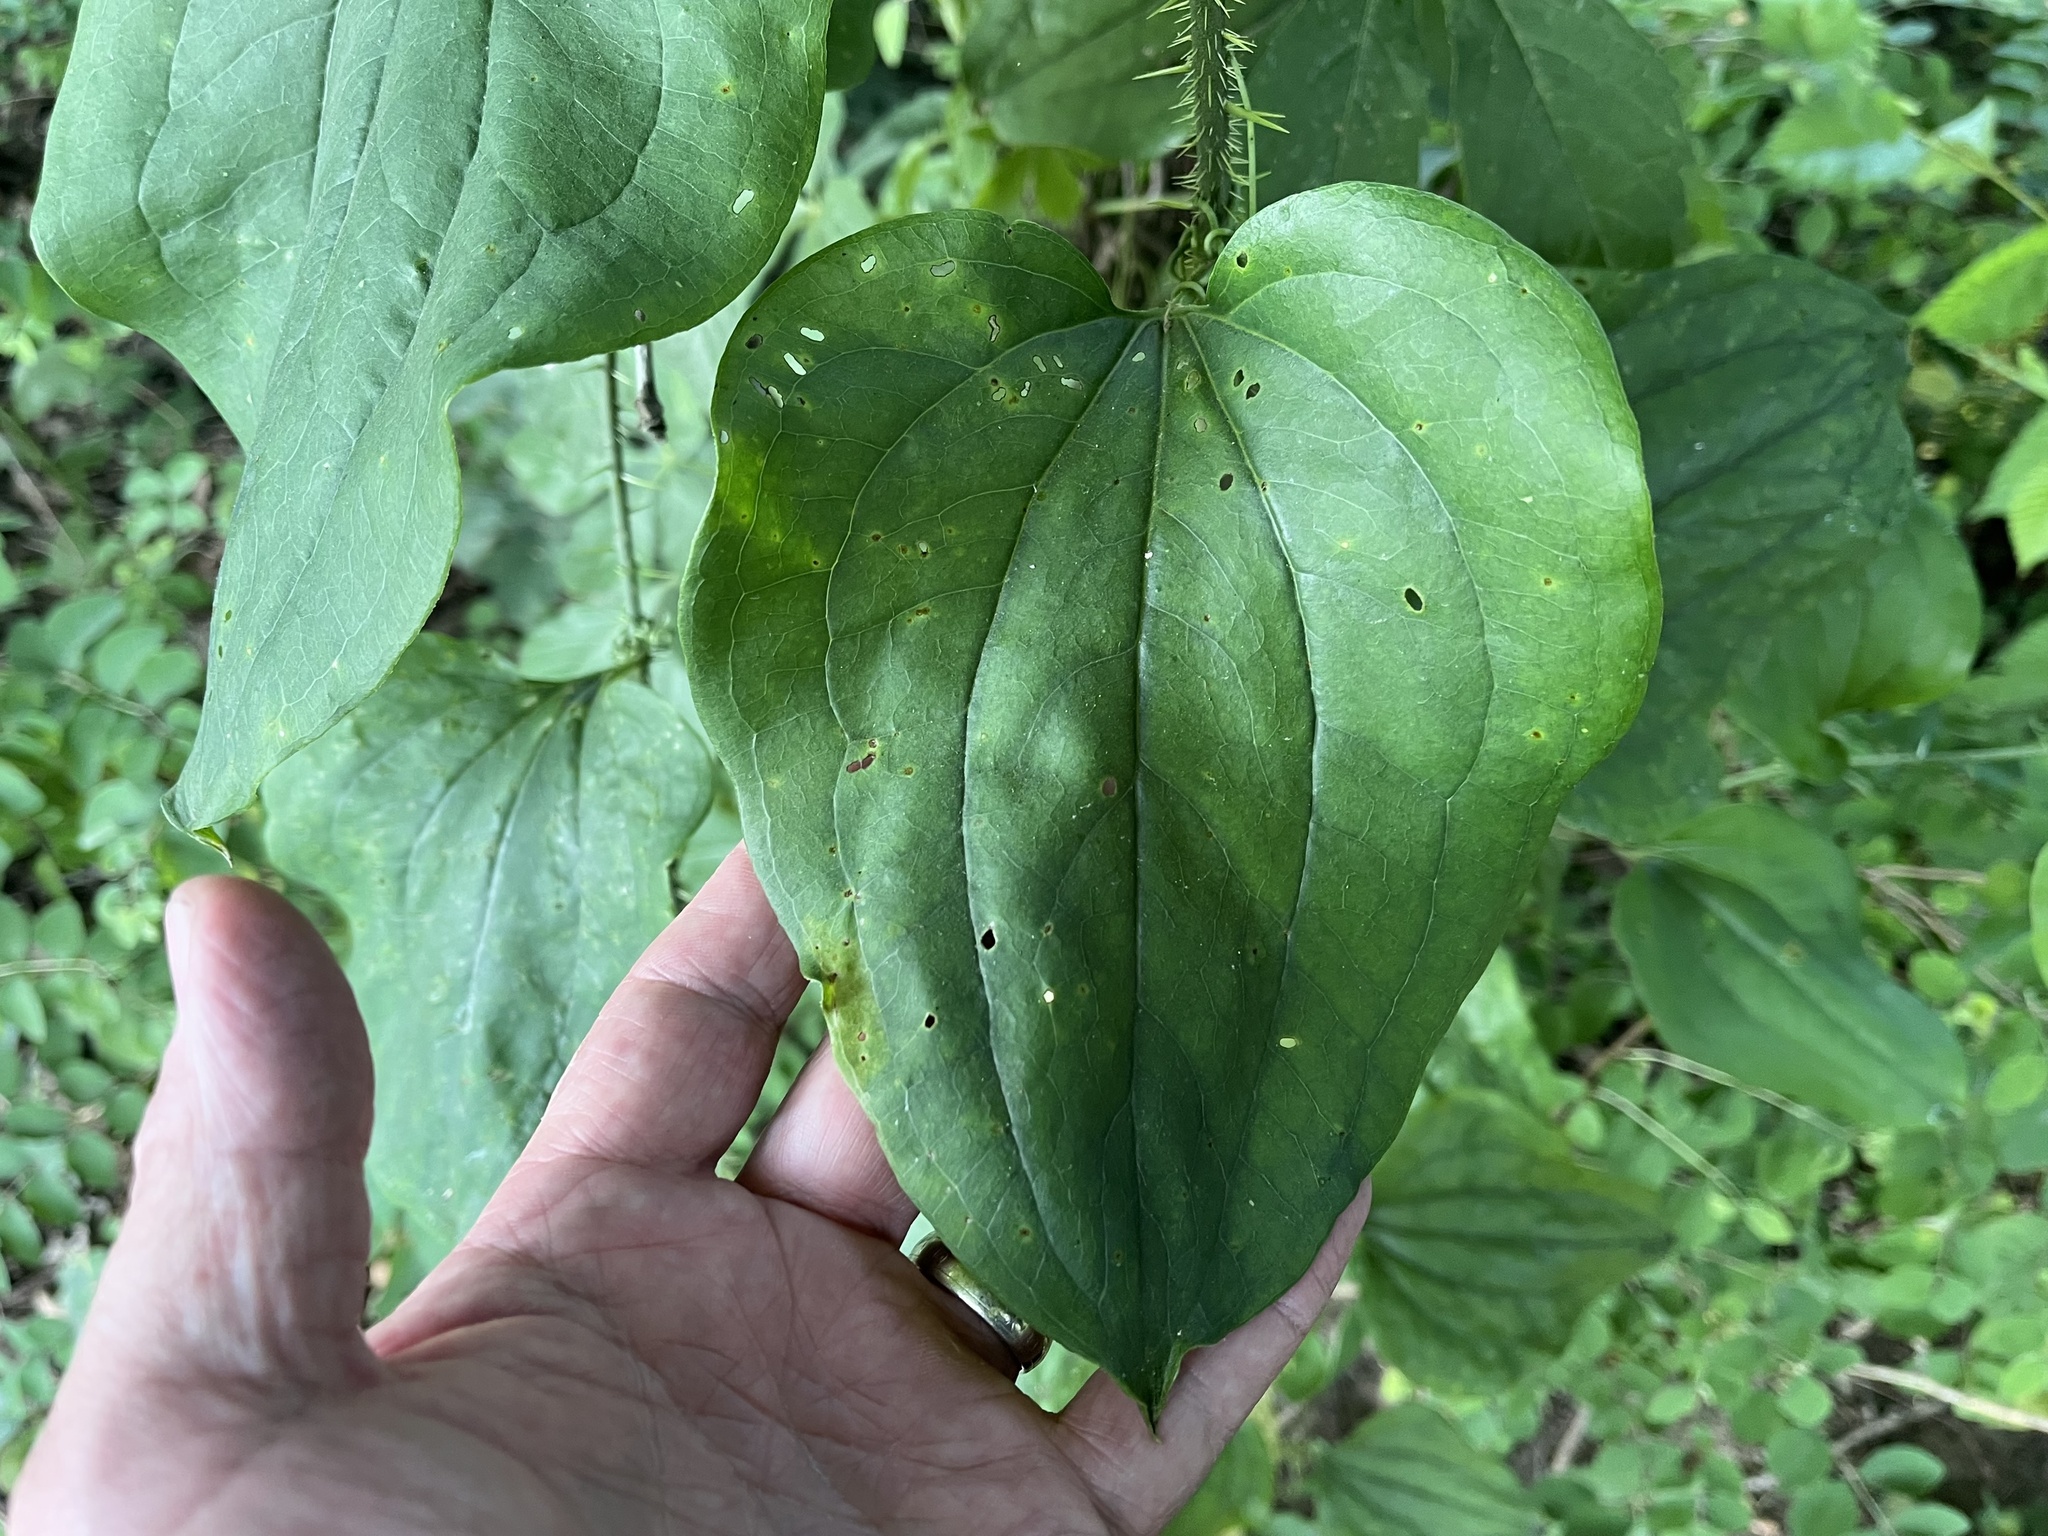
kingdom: Plantae
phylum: Tracheophyta
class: Liliopsida
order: Liliales
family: Smilacaceae
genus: Smilax
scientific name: Smilax tamnoides
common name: Hellfetter
